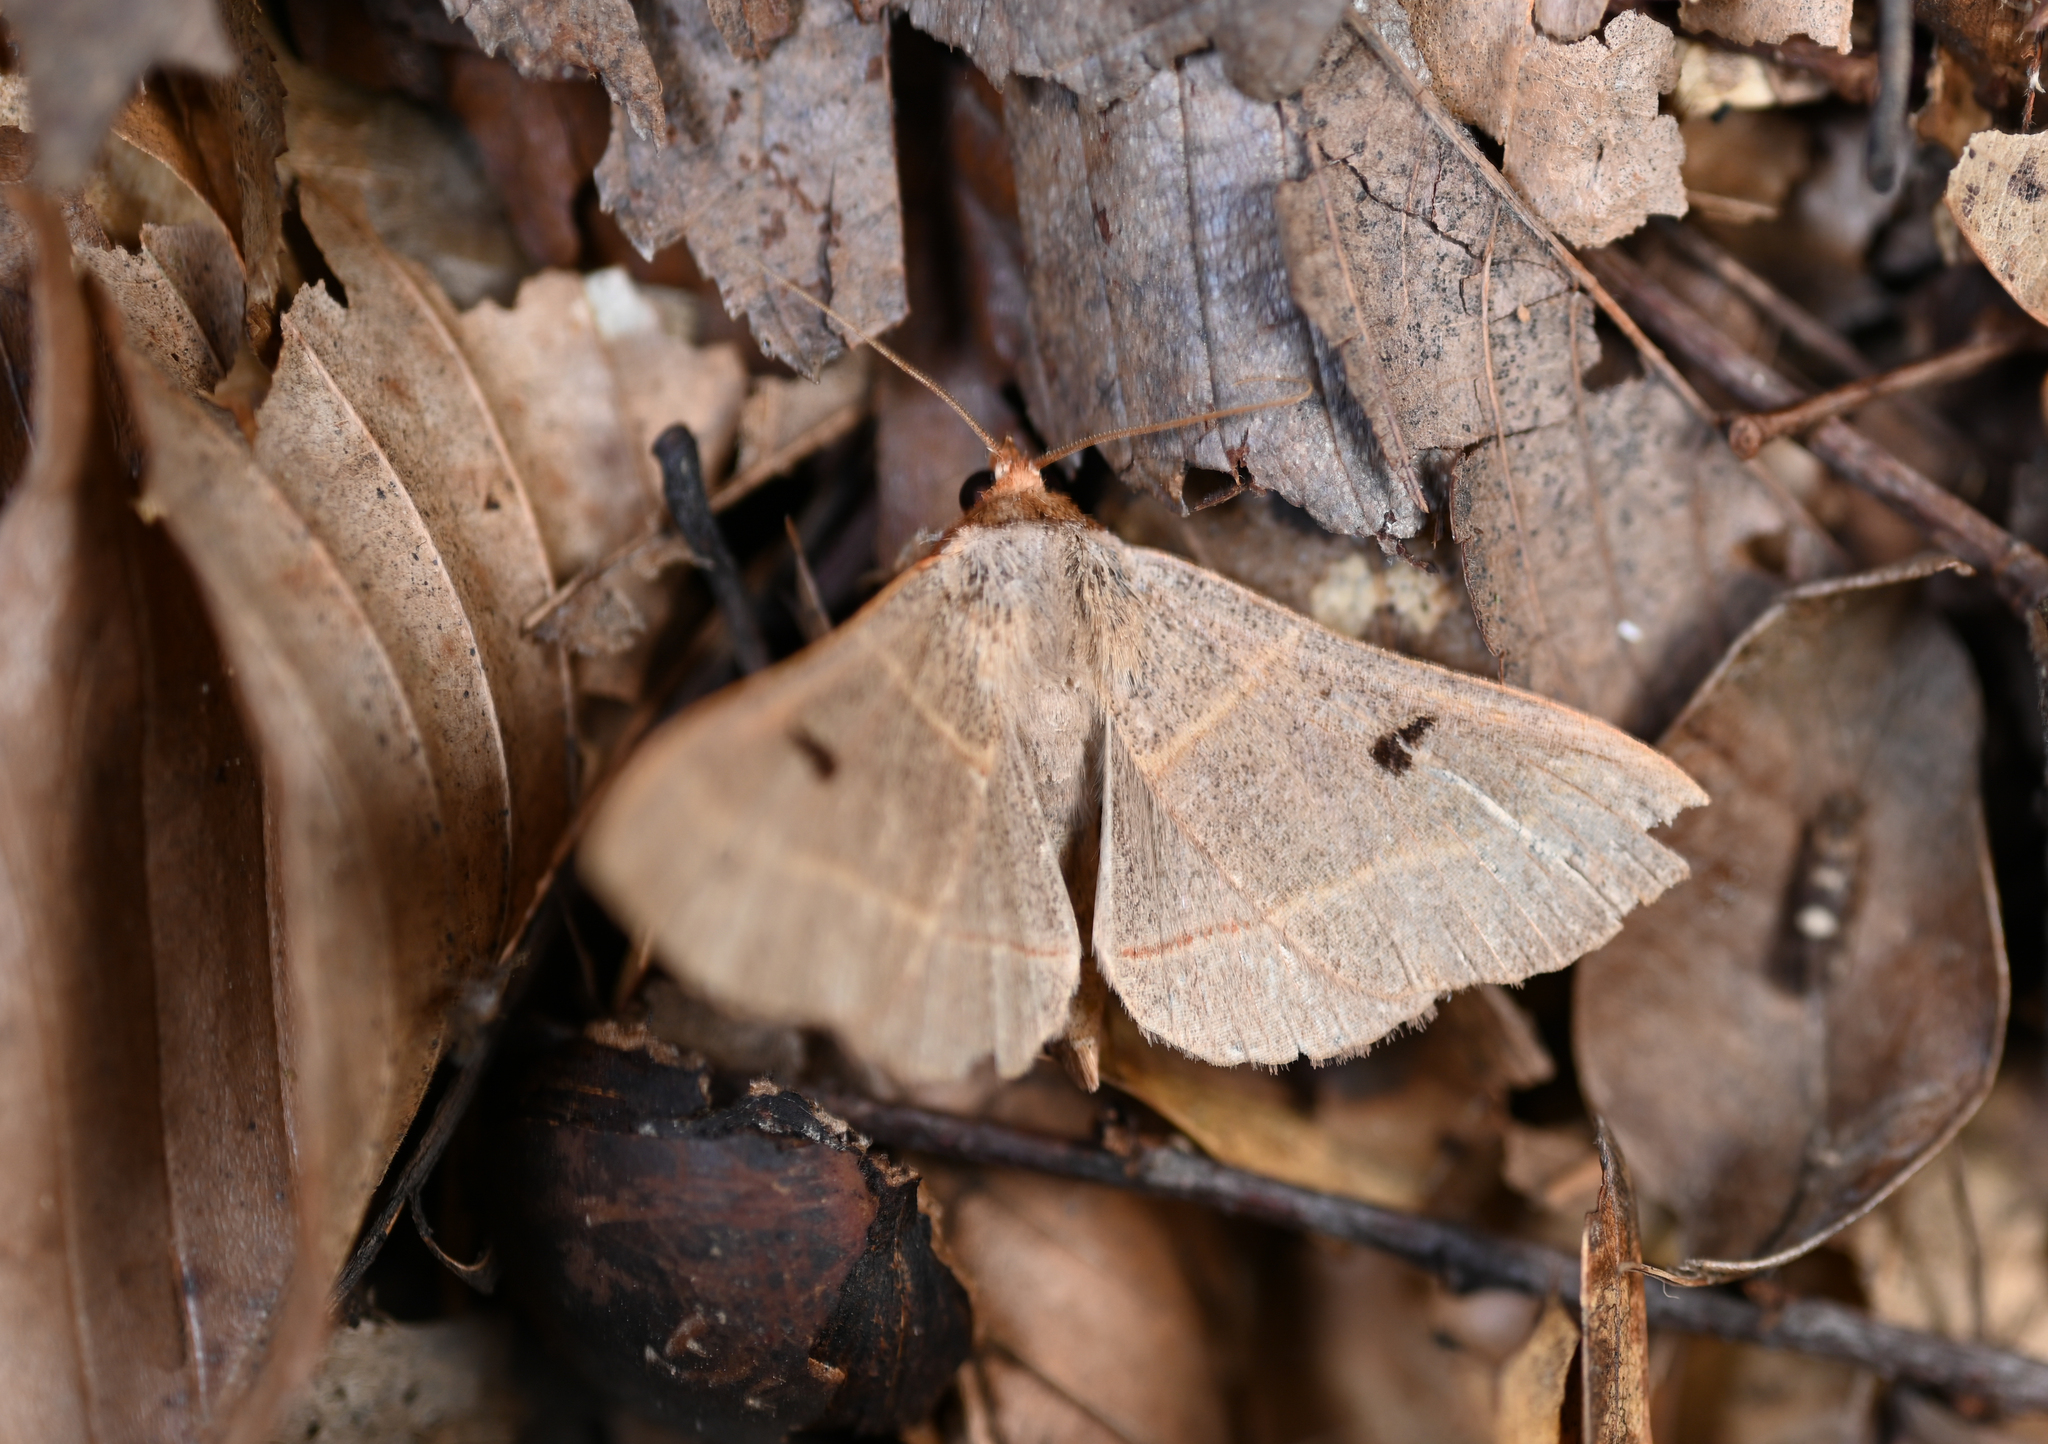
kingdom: Animalia
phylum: Arthropoda
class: Insecta
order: Lepidoptera
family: Erebidae
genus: Panopoda
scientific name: Panopoda rufimargo
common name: Red-lined panopoda moth
